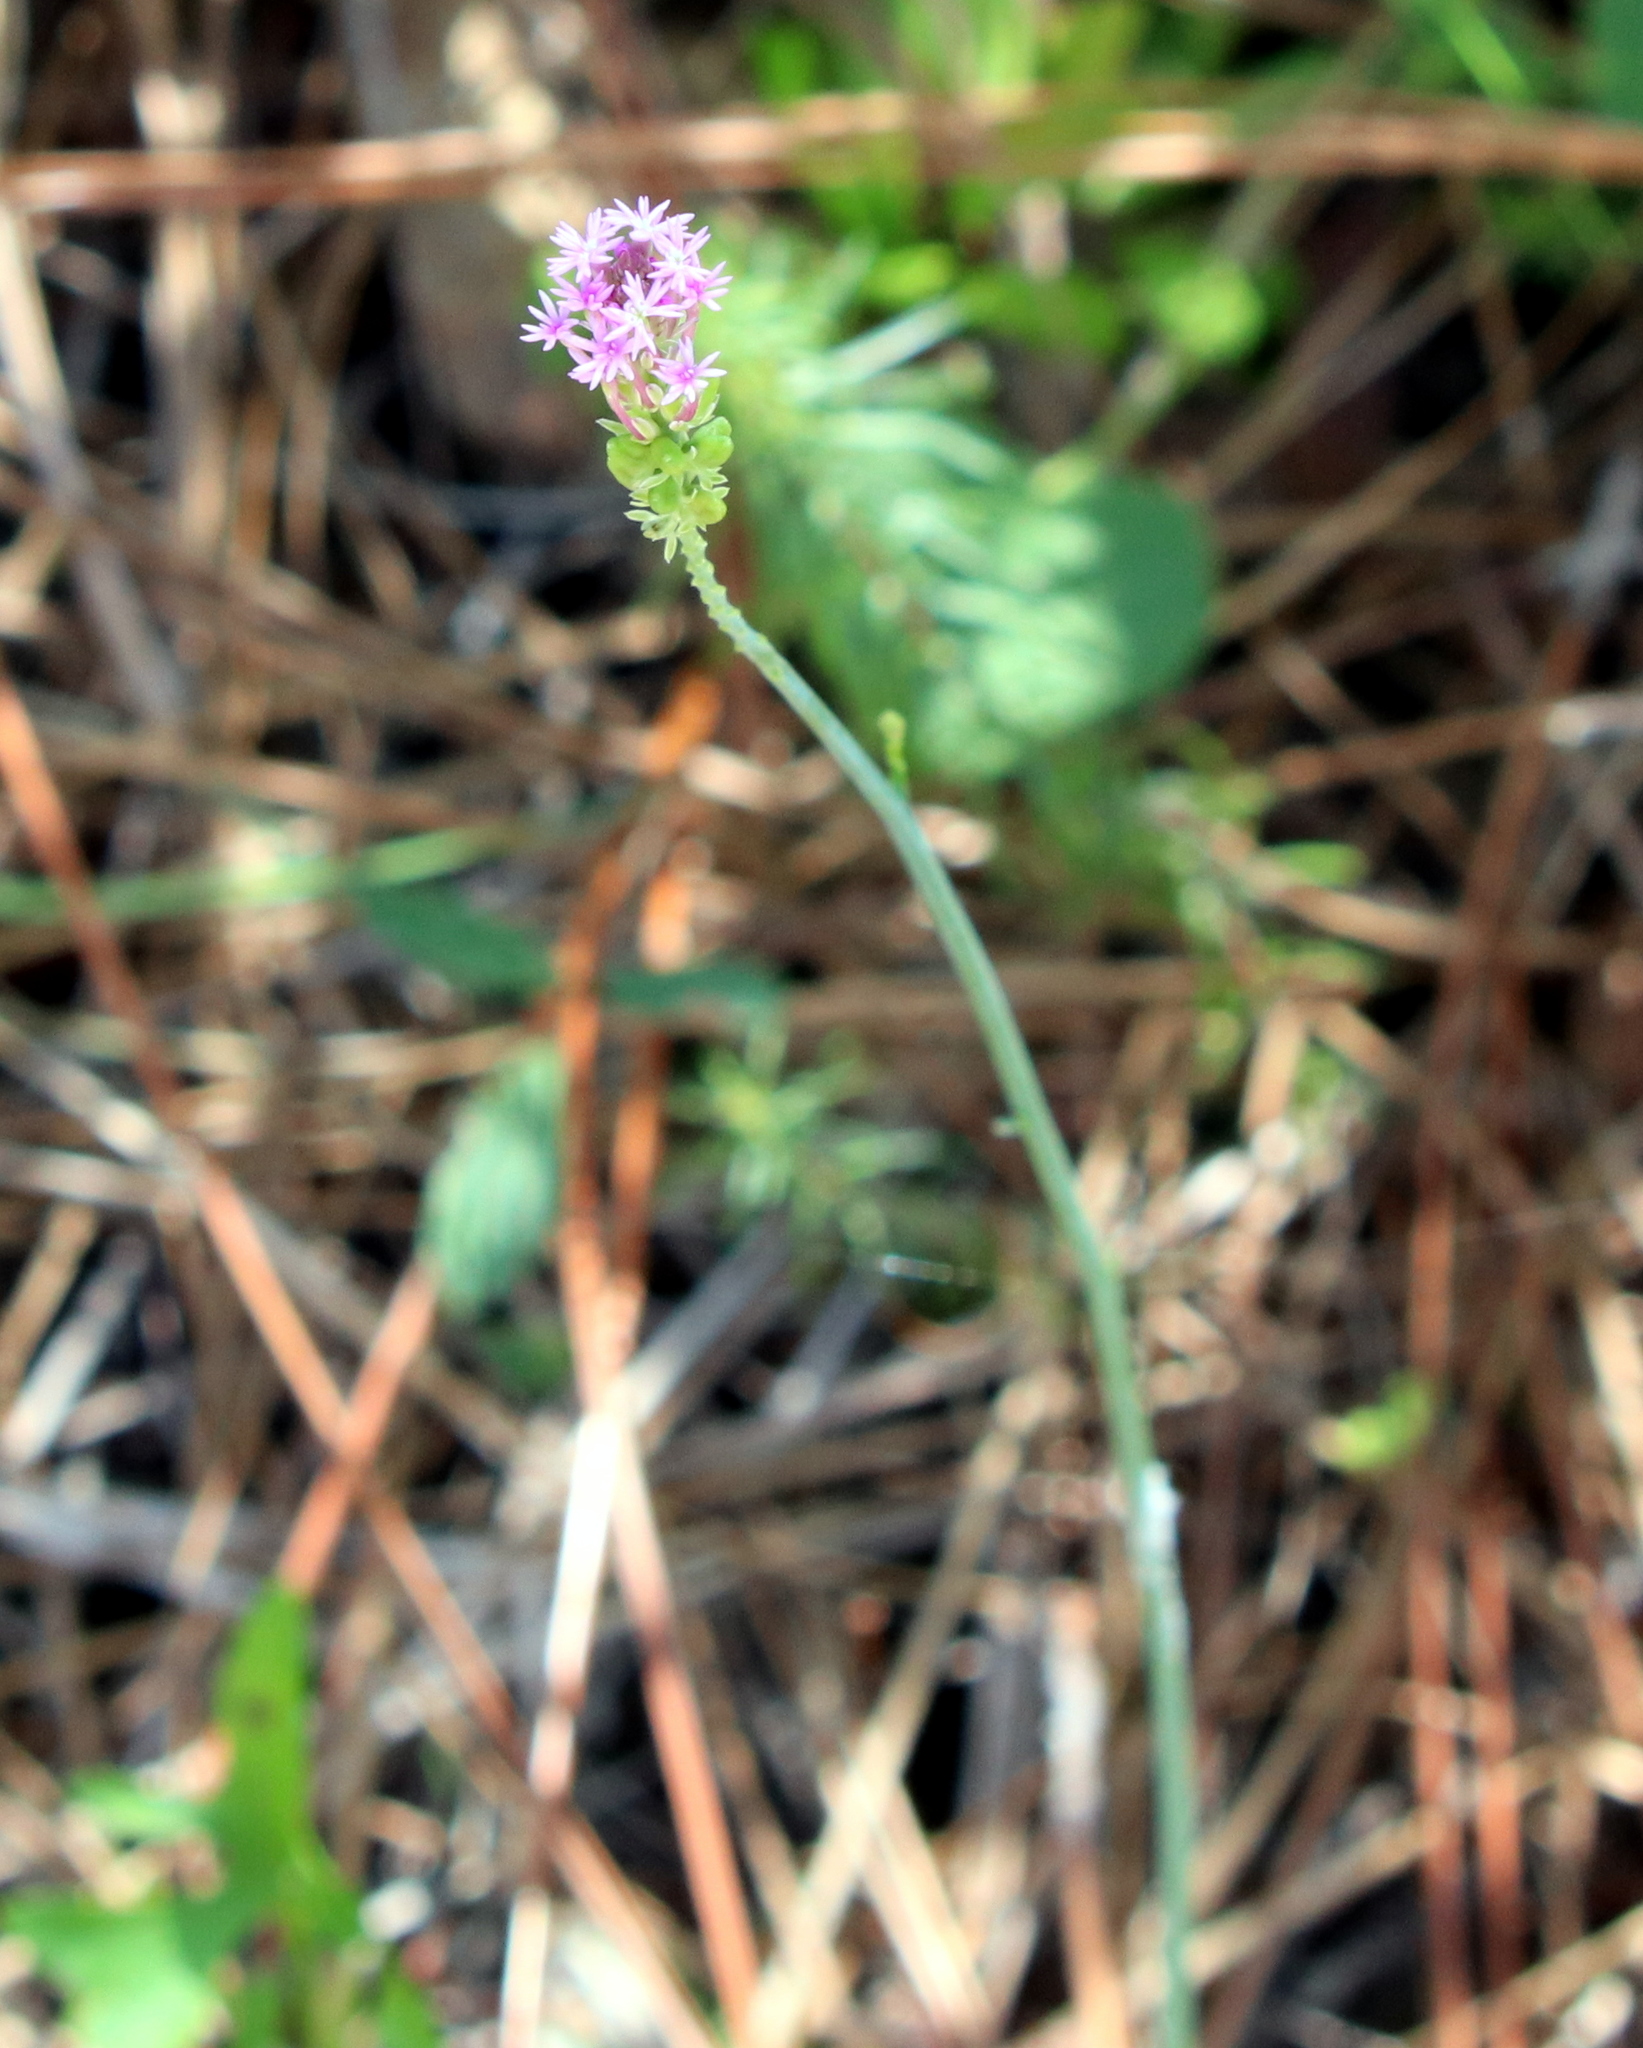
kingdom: Plantae
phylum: Tracheophyta
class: Magnoliopsida
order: Fabales
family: Polygalaceae
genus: Polygala
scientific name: Polygala incarnata
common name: Pink milkwort
